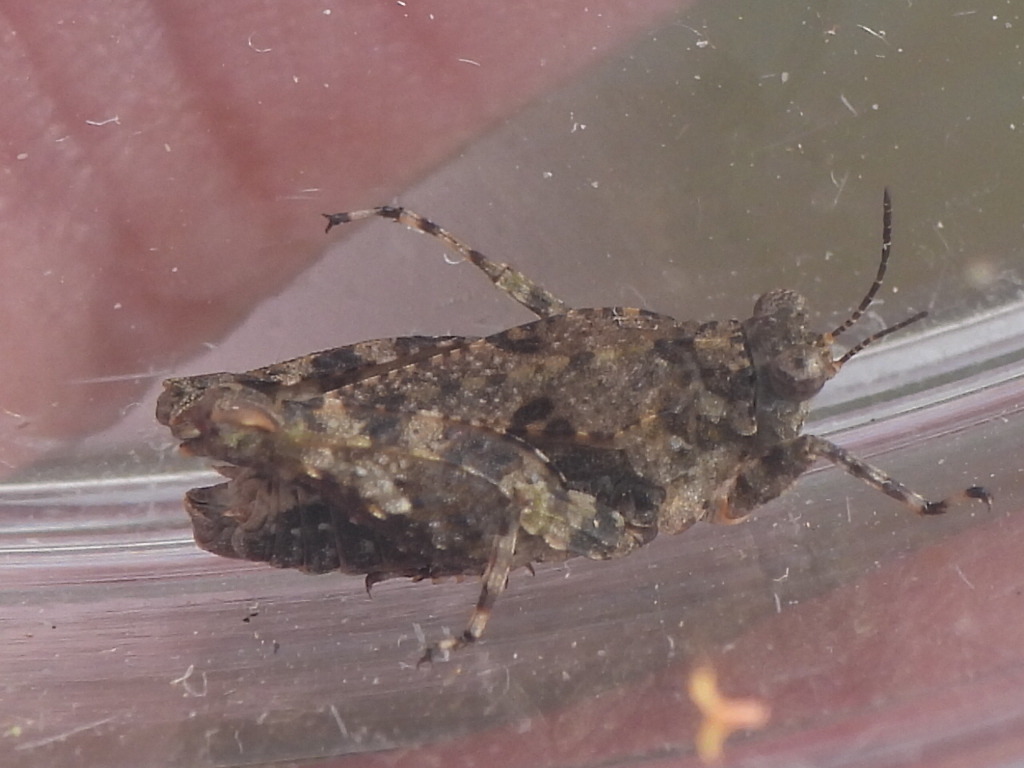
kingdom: Animalia
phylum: Arthropoda
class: Insecta
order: Orthoptera
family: Tetrigidae
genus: Paratettix
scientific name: Paratettix mexicanus
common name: Mexican pygmy grasshopper
